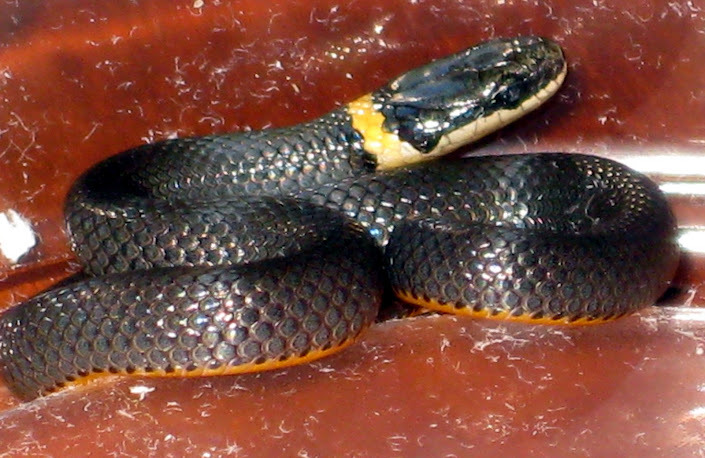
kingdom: Animalia
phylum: Chordata
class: Squamata
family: Colubridae
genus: Diadophis
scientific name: Diadophis punctatus
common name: Ringneck snake
